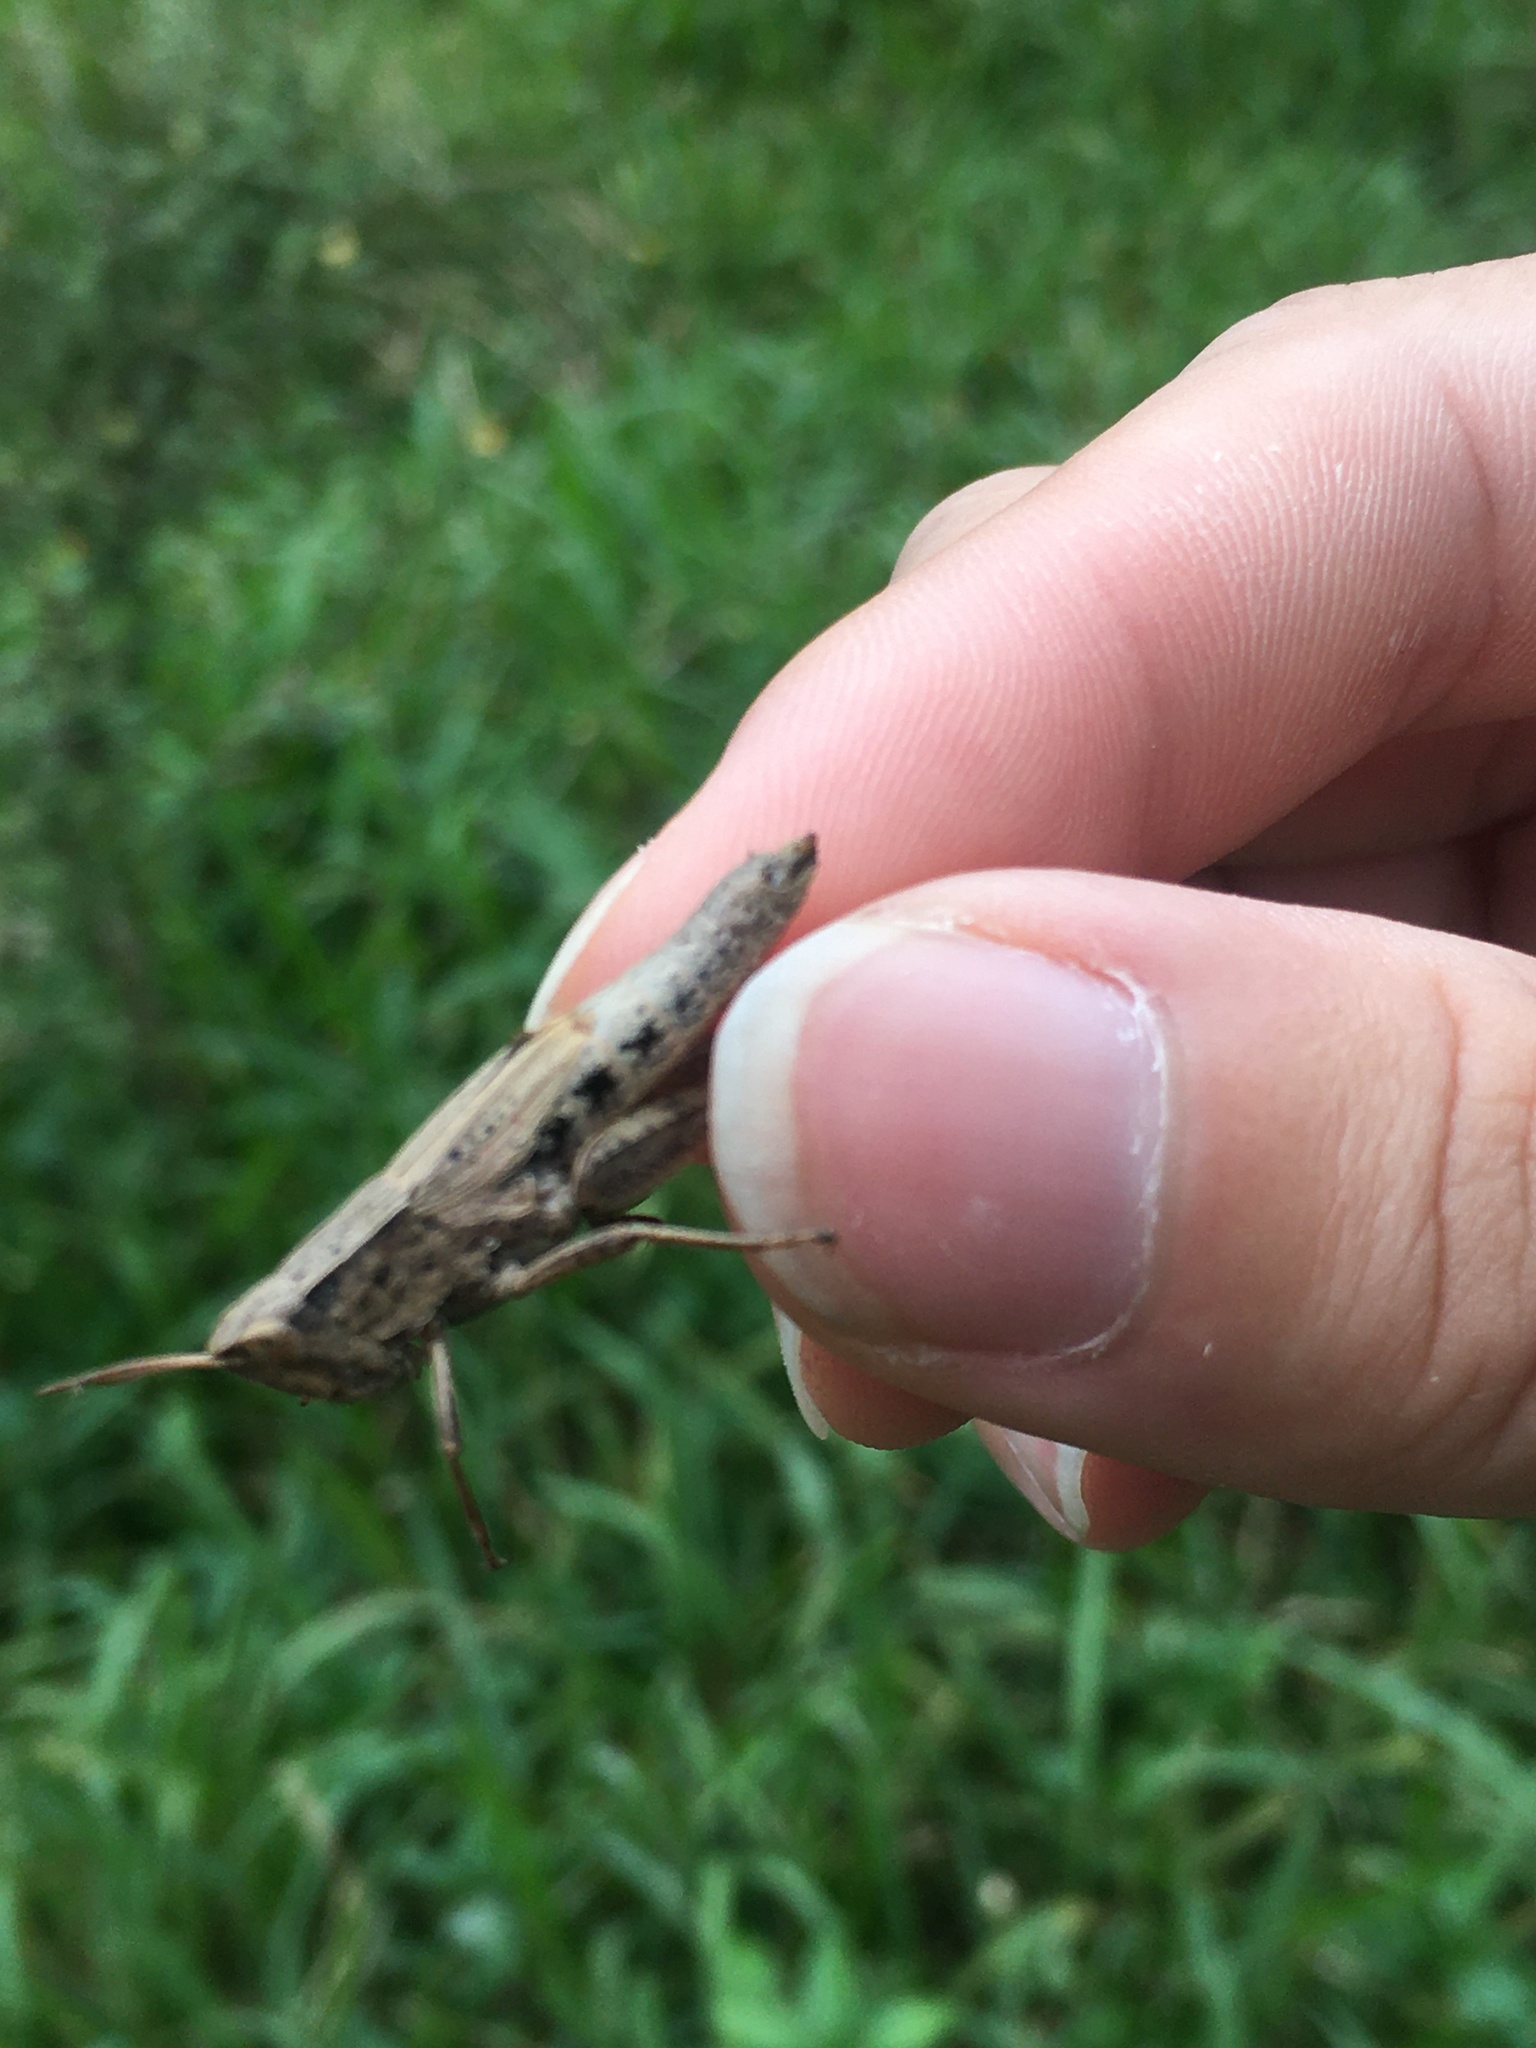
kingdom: Animalia
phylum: Arthropoda
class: Insecta
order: Orthoptera
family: Acrididae
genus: Dichromorpha
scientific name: Dichromorpha viridis
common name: Short-winged green grasshopper
